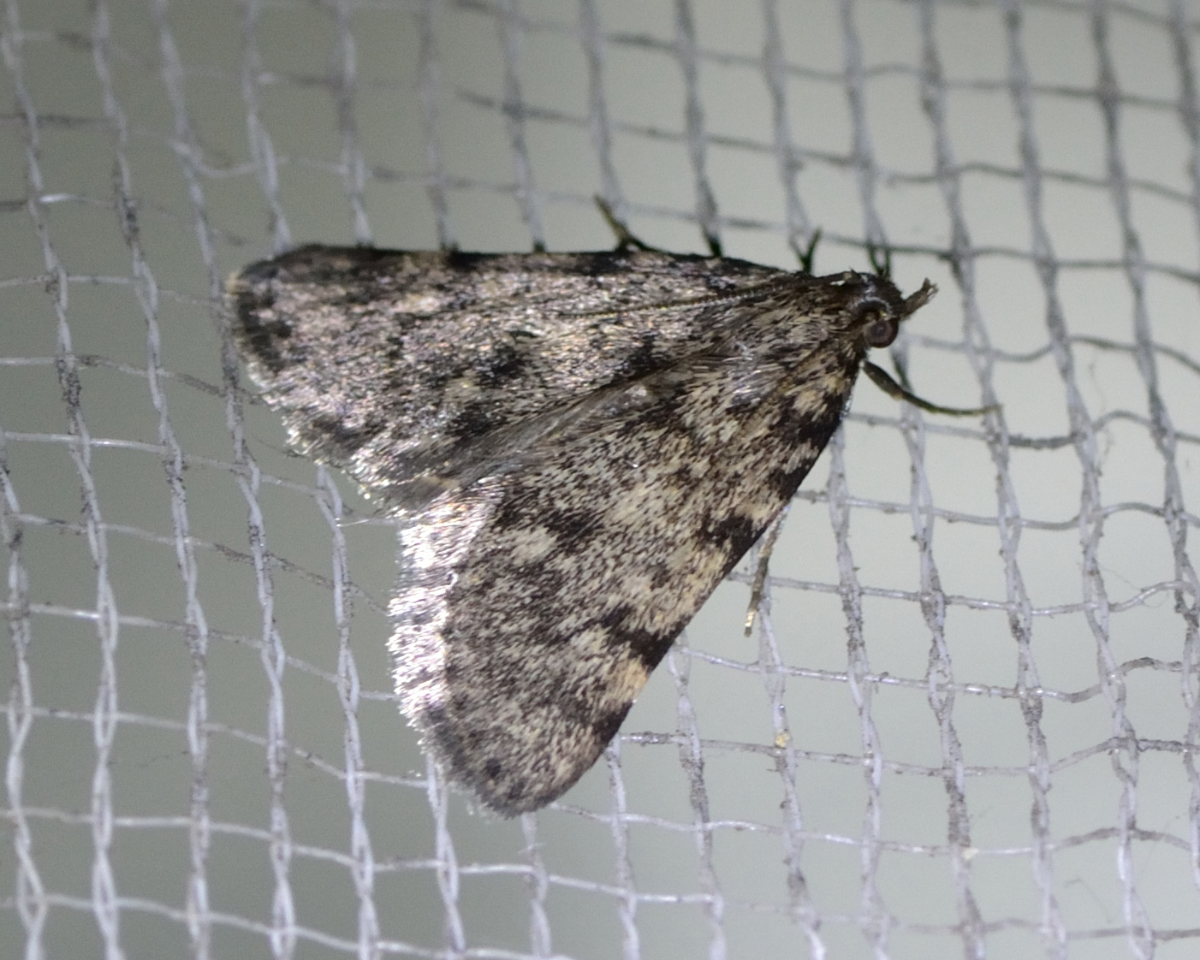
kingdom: Animalia
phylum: Arthropoda
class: Insecta
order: Lepidoptera
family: Pyralidae
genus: Aglossa
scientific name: Aglossa pinguinalis
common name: Large tabby
